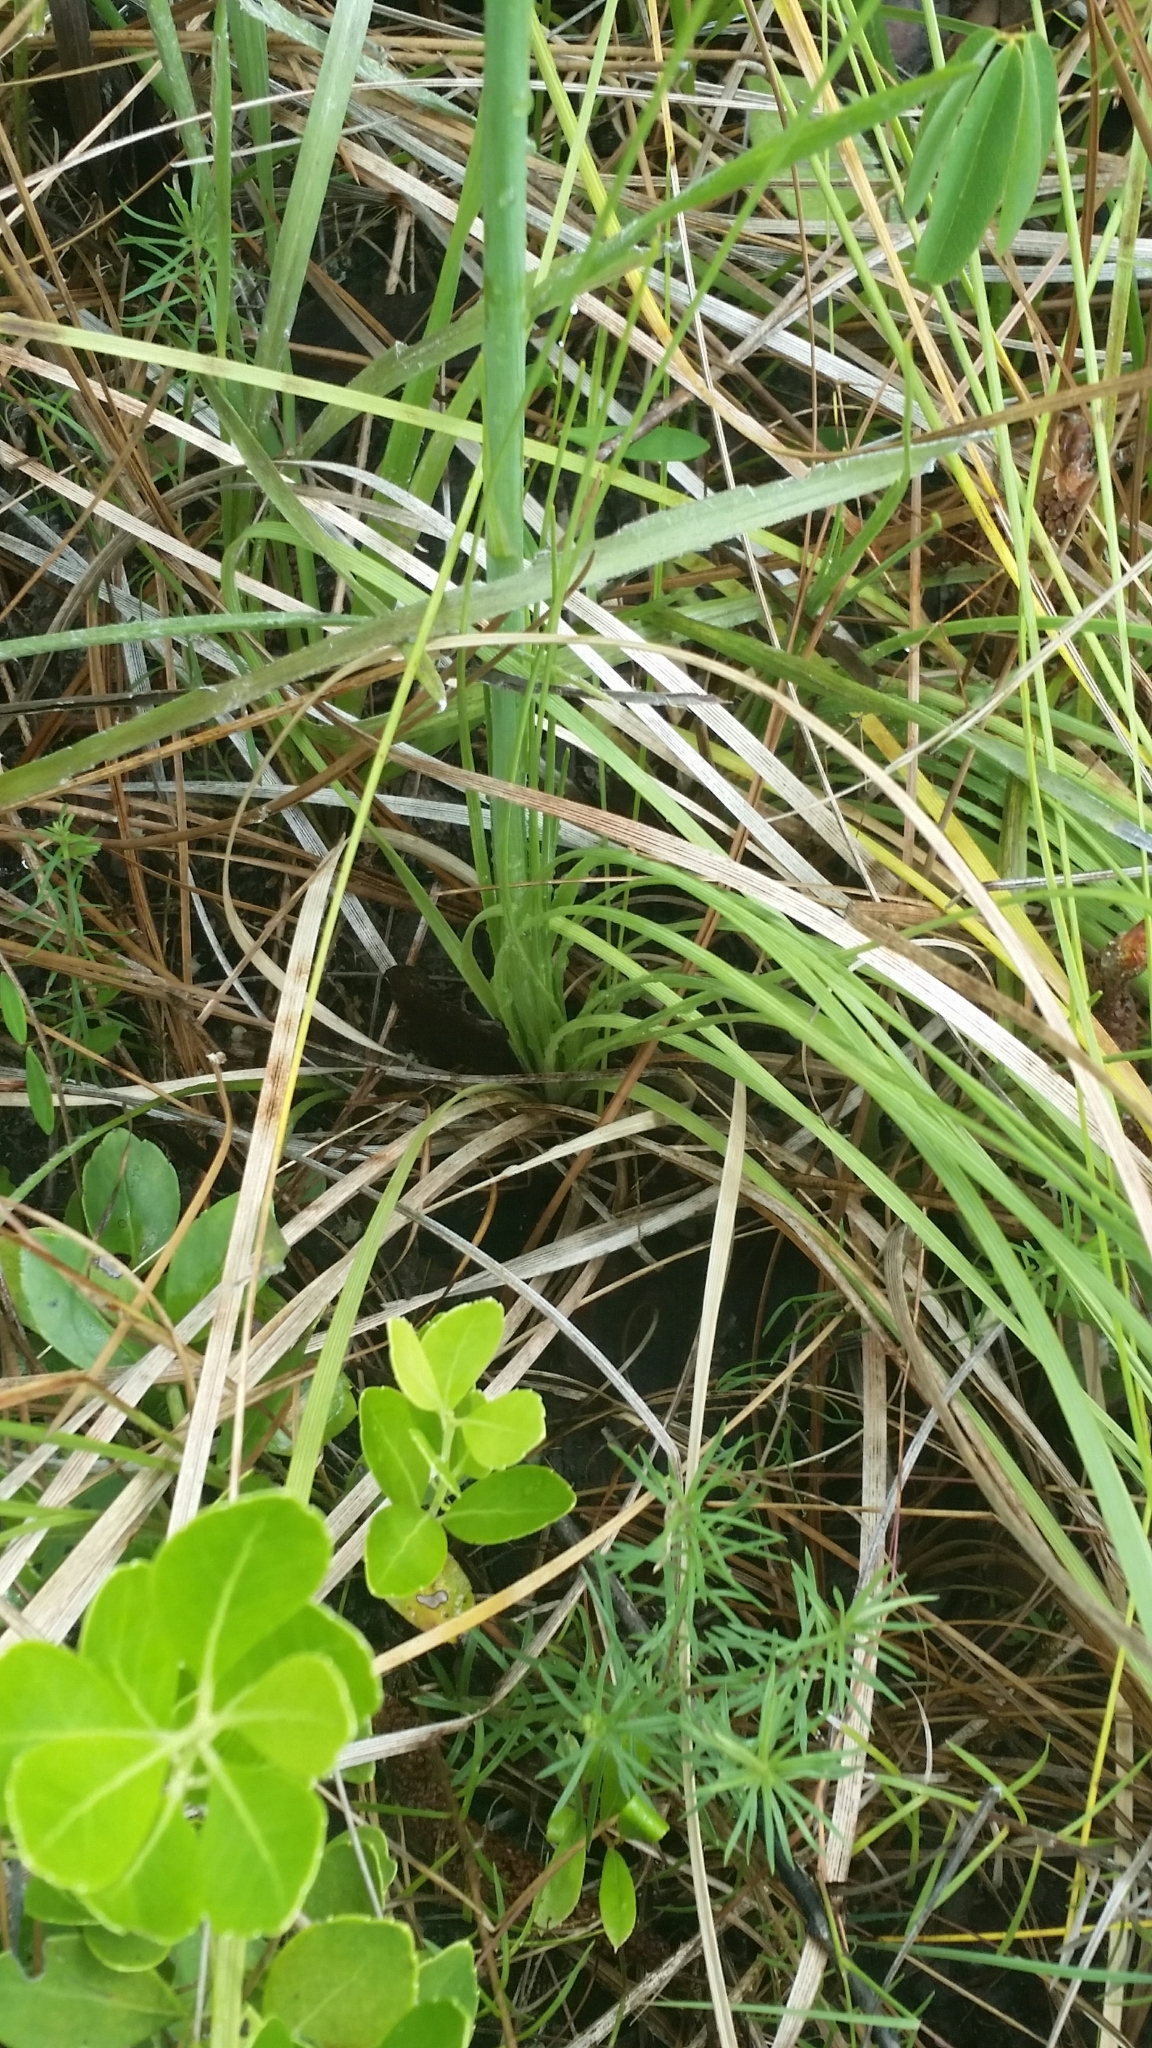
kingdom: Plantae
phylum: Tracheophyta
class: Liliopsida
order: Asparagales
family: Asparagaceae
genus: Nolina
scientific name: Nolina atopocarpa
